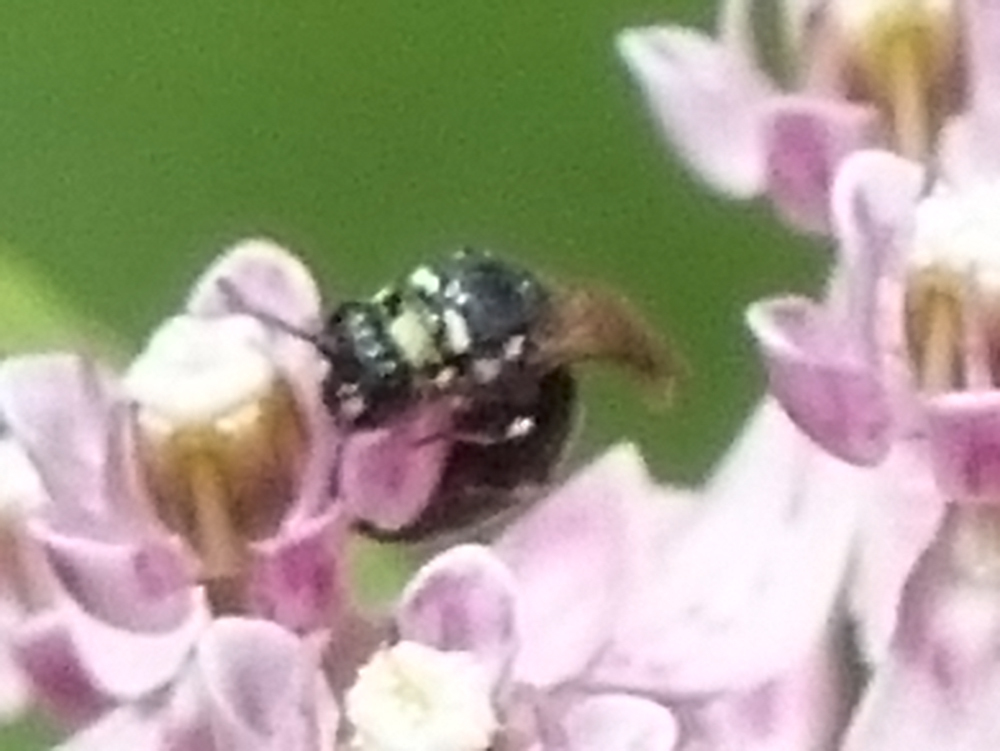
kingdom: Animalia
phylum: Arthropoda
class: Insecta
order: Hymenoptera
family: Colletidae
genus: Hylaeus
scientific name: Hylaeus leptocephalus
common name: Slender-faced masked bee
